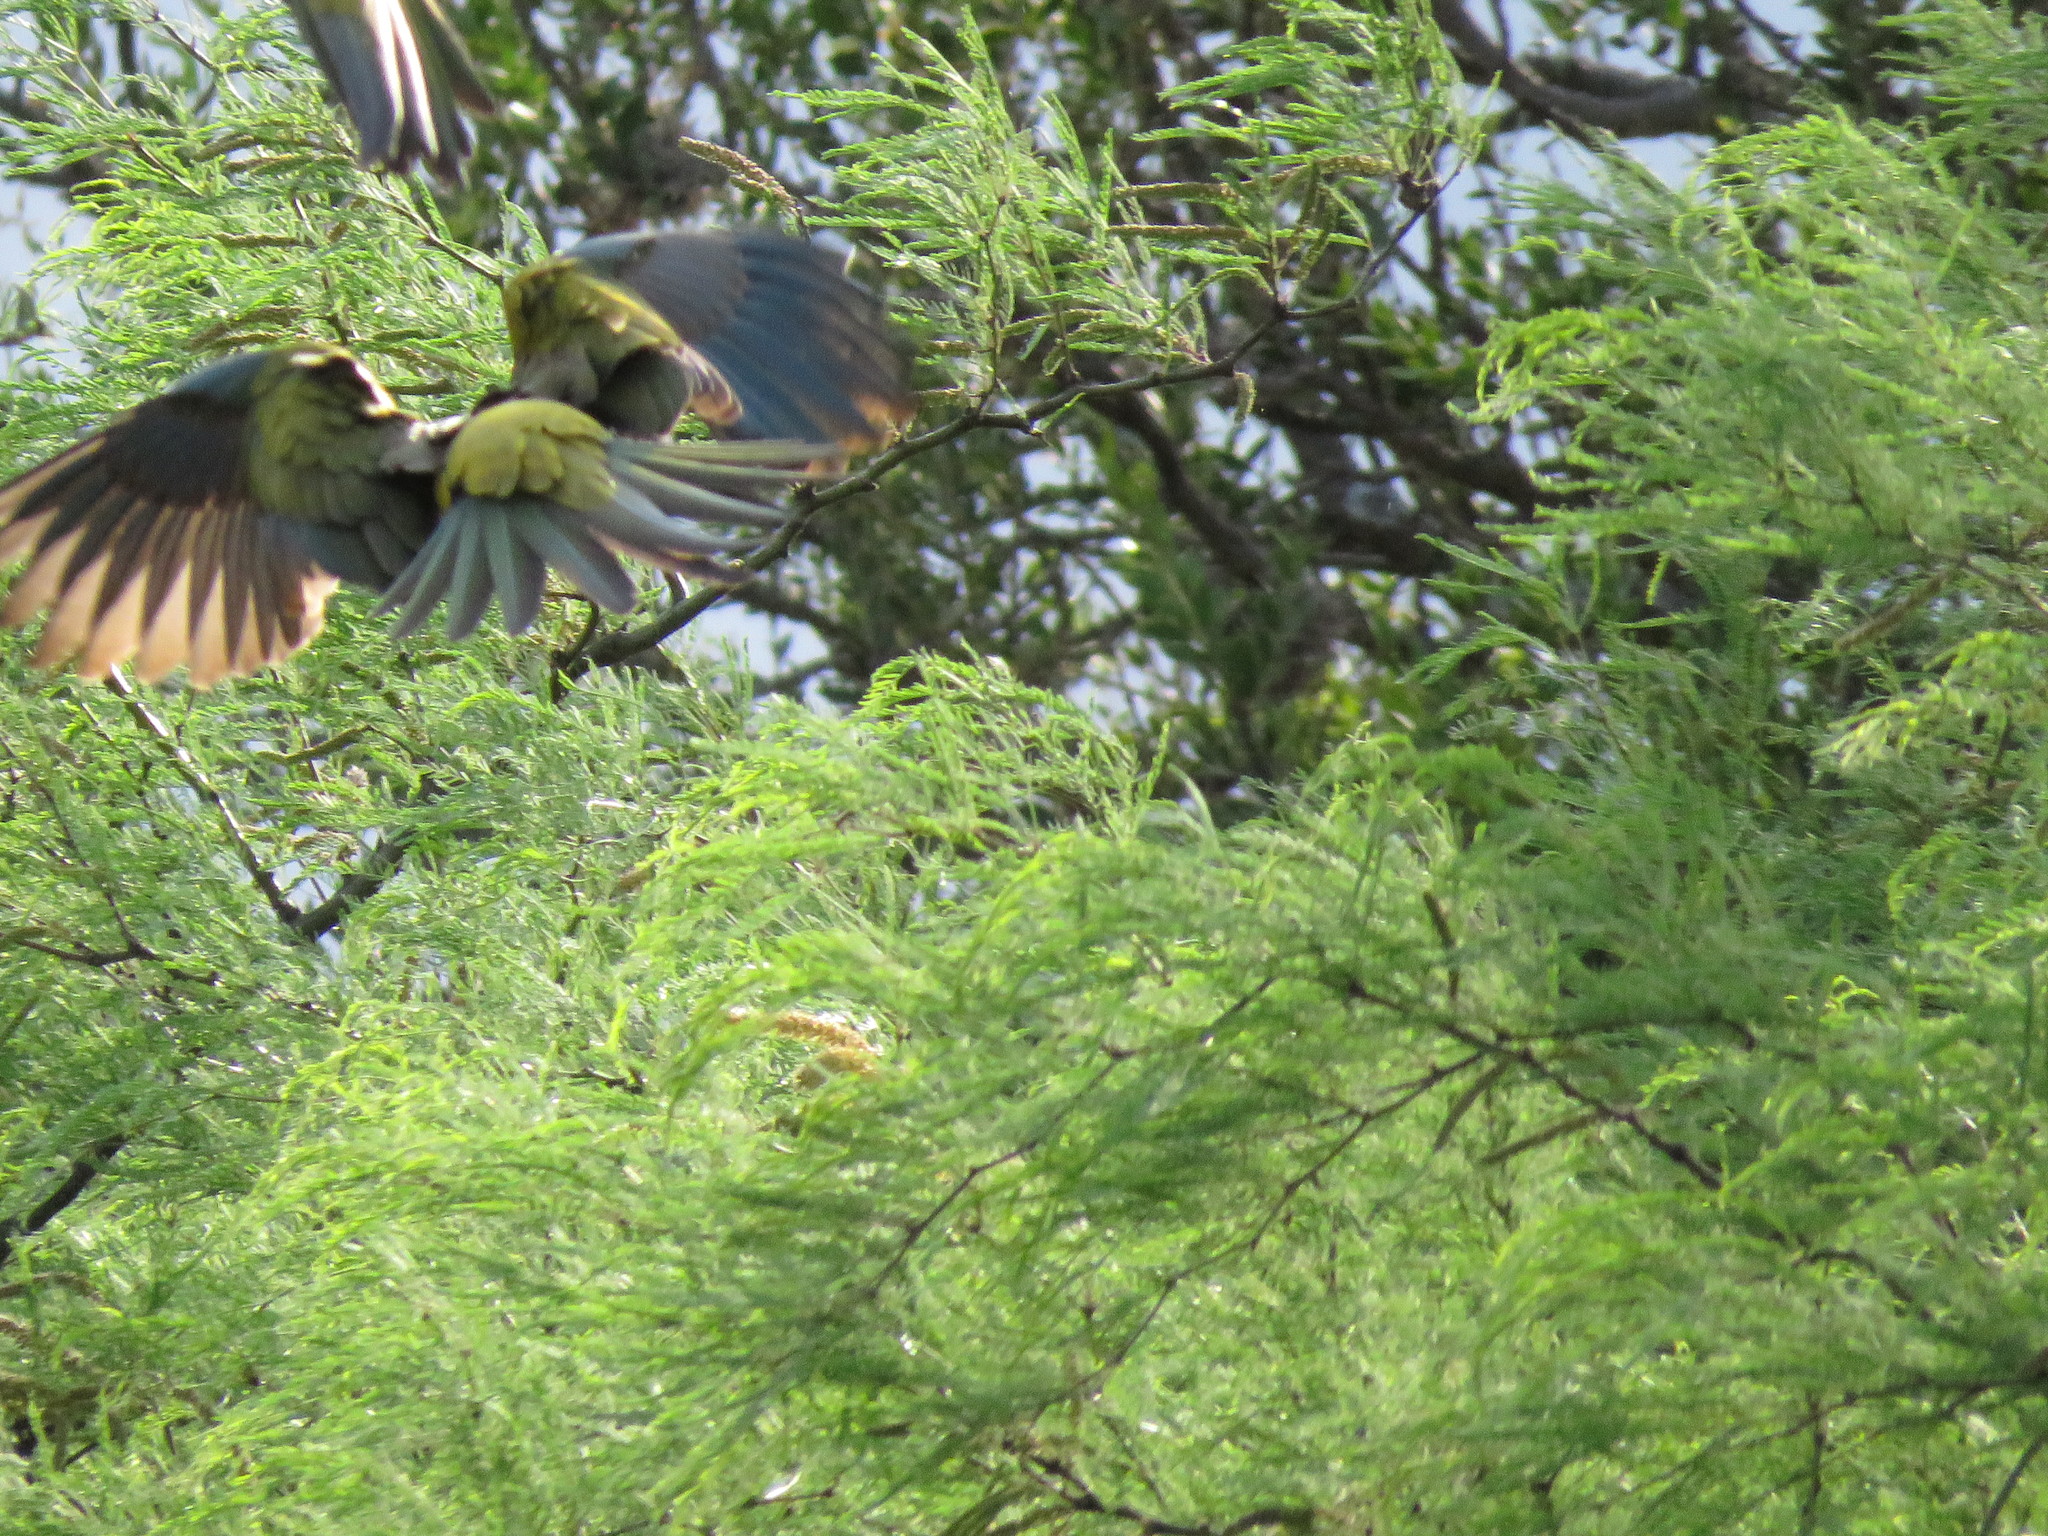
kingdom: Animalia
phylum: Chordata
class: Aves
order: Psittaciformes
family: Psittacidae
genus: Cyanoliseus
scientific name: Cyanoliseus patagonus
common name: Burrowing parrot
